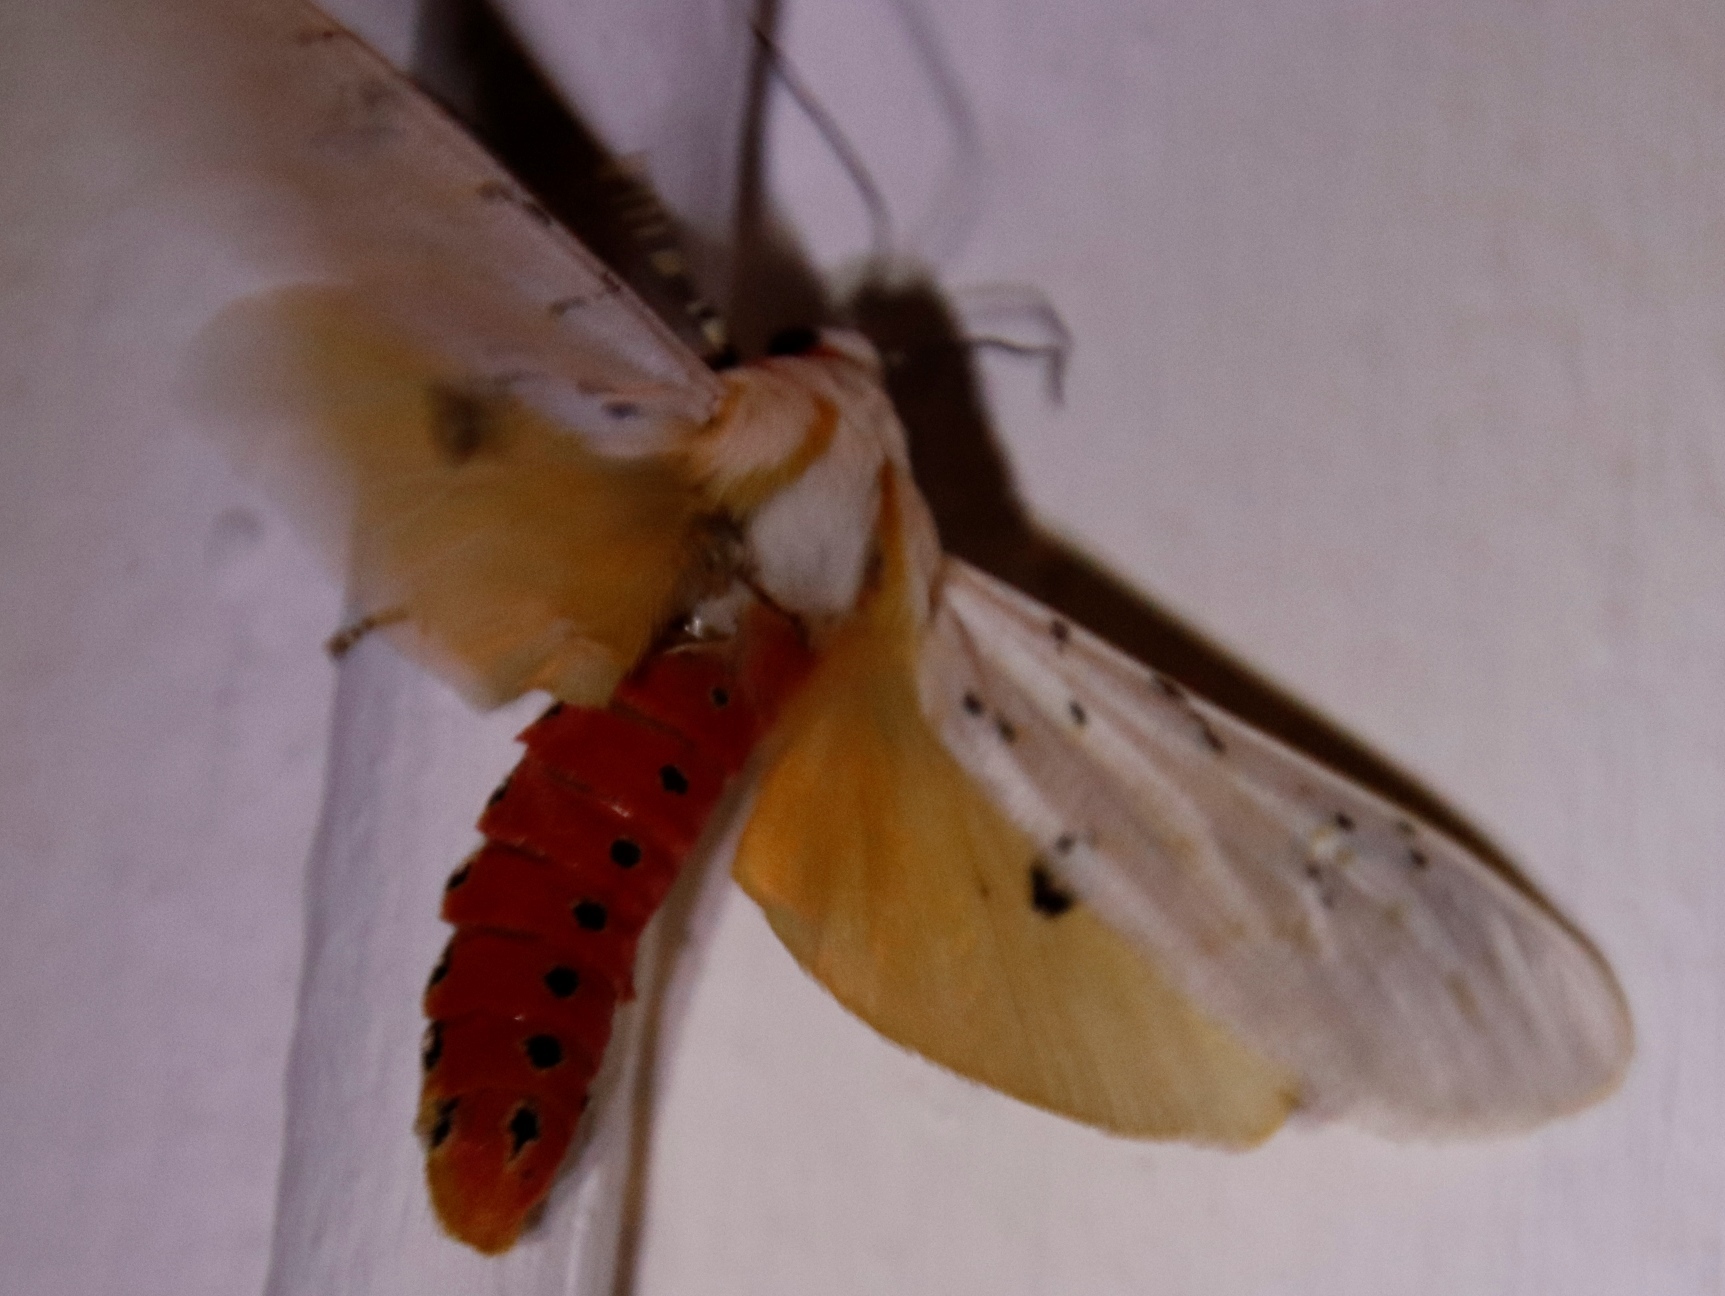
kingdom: Animalia
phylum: Arthropoda
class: Insecta
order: Lepidoptera
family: Erebidae
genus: Rhodogastria
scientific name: Rhodogastria similis
